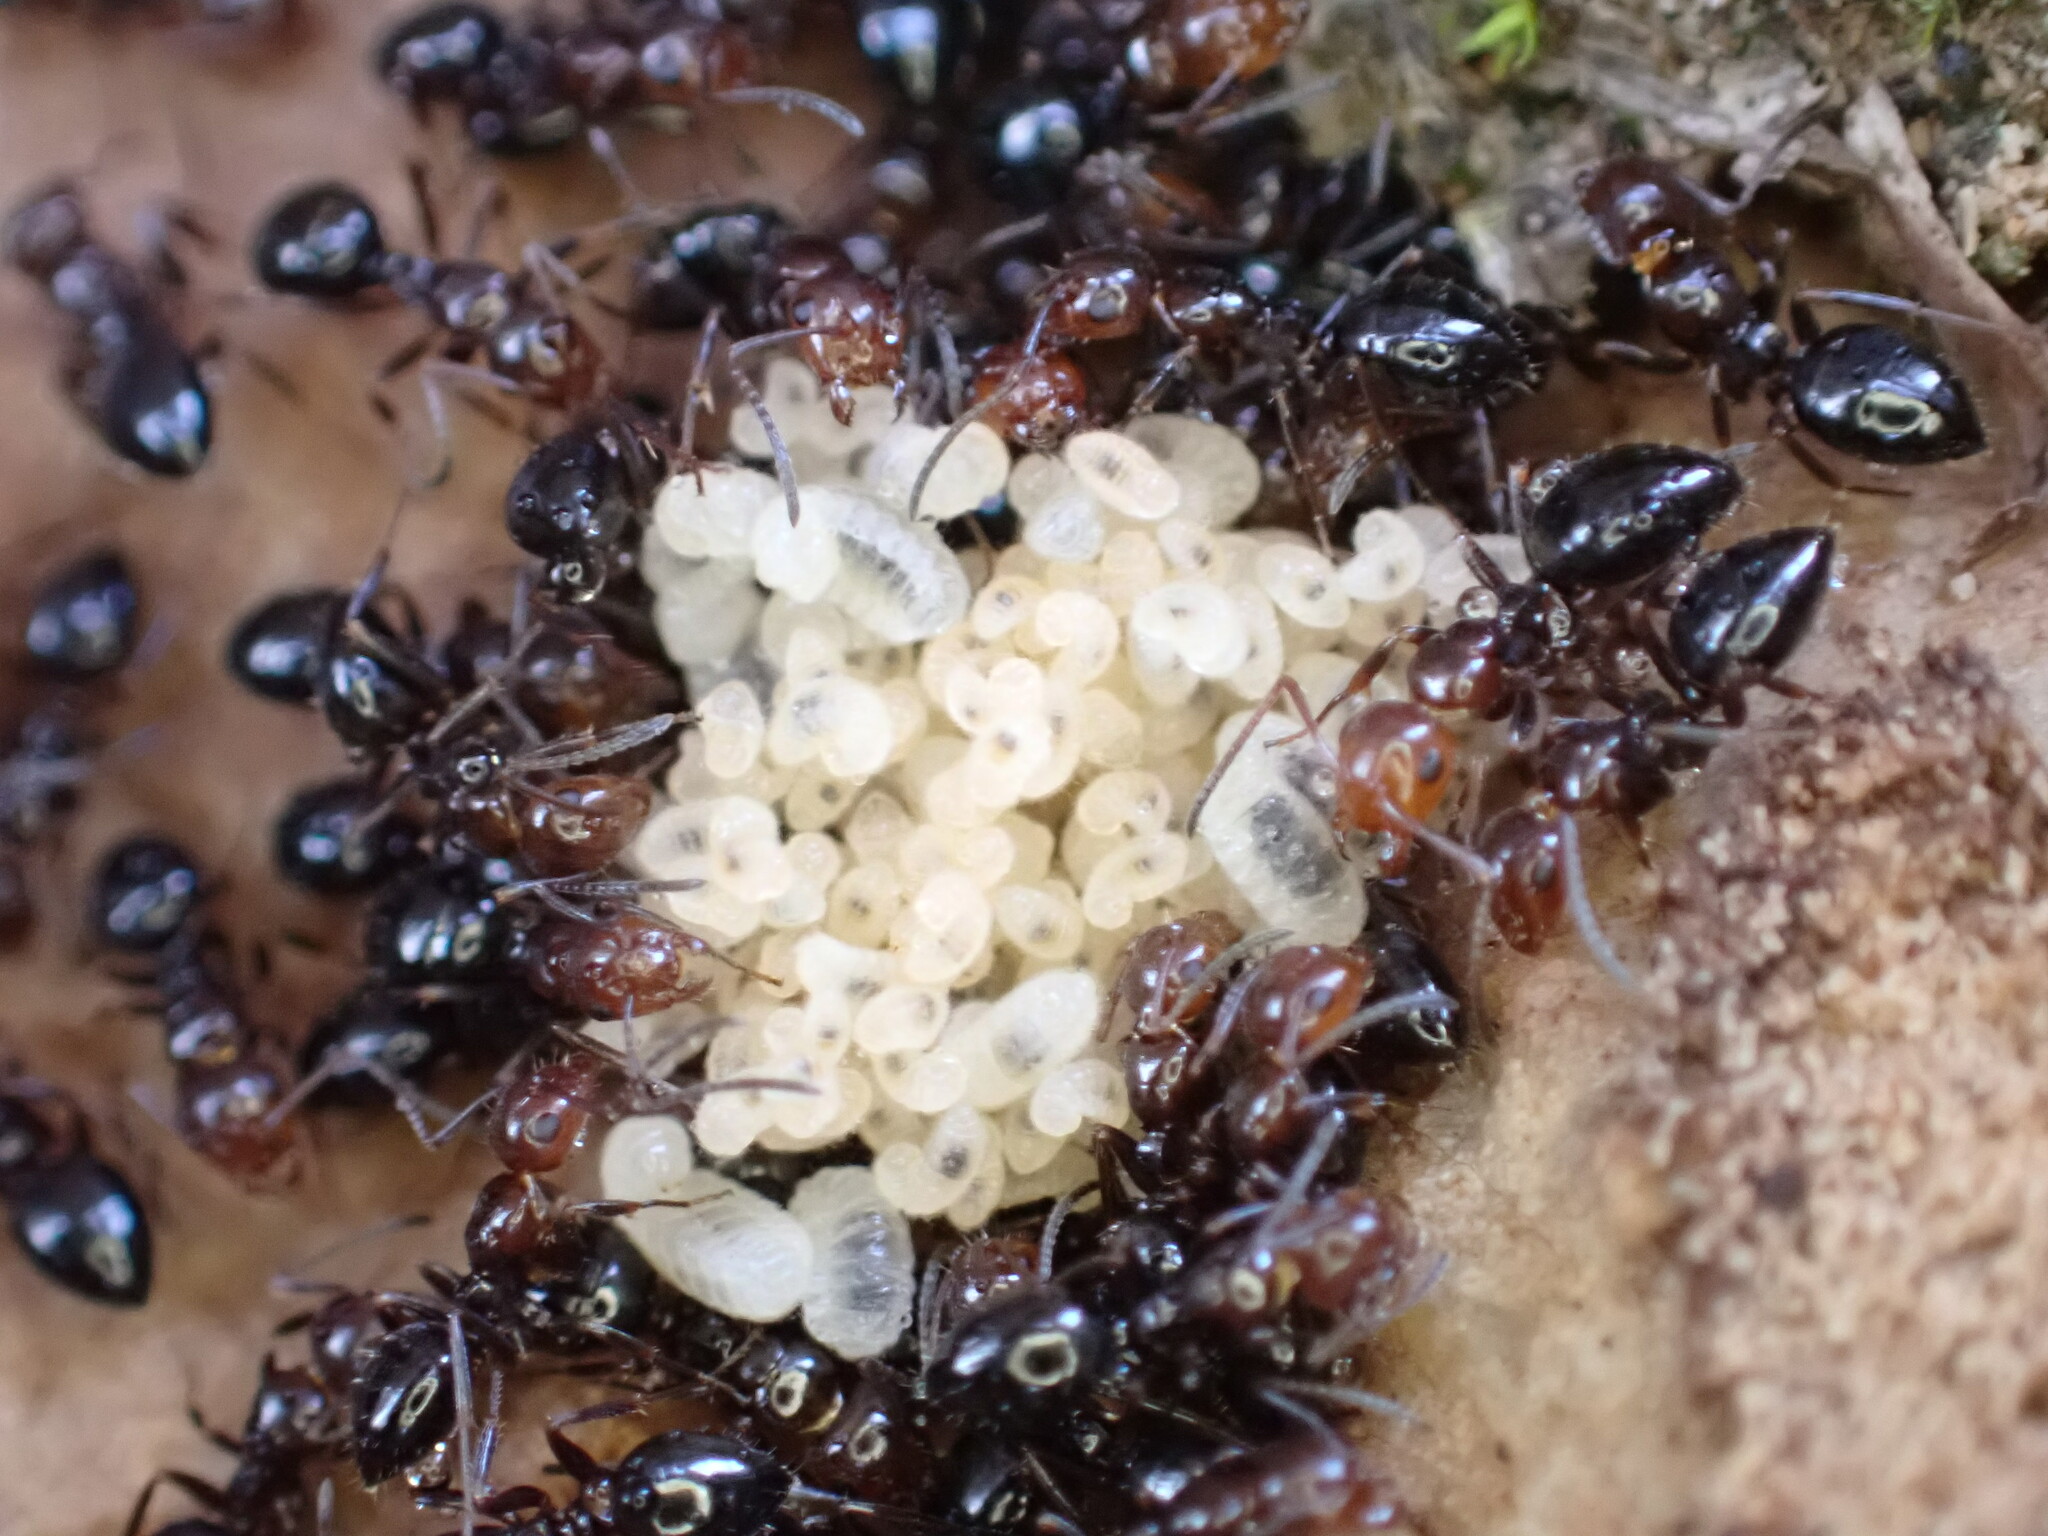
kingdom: Animalia
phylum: Arthropoda
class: Insecta
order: Hymenoptera
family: Formicidae
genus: Camponotus
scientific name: Camponotus lateralis
